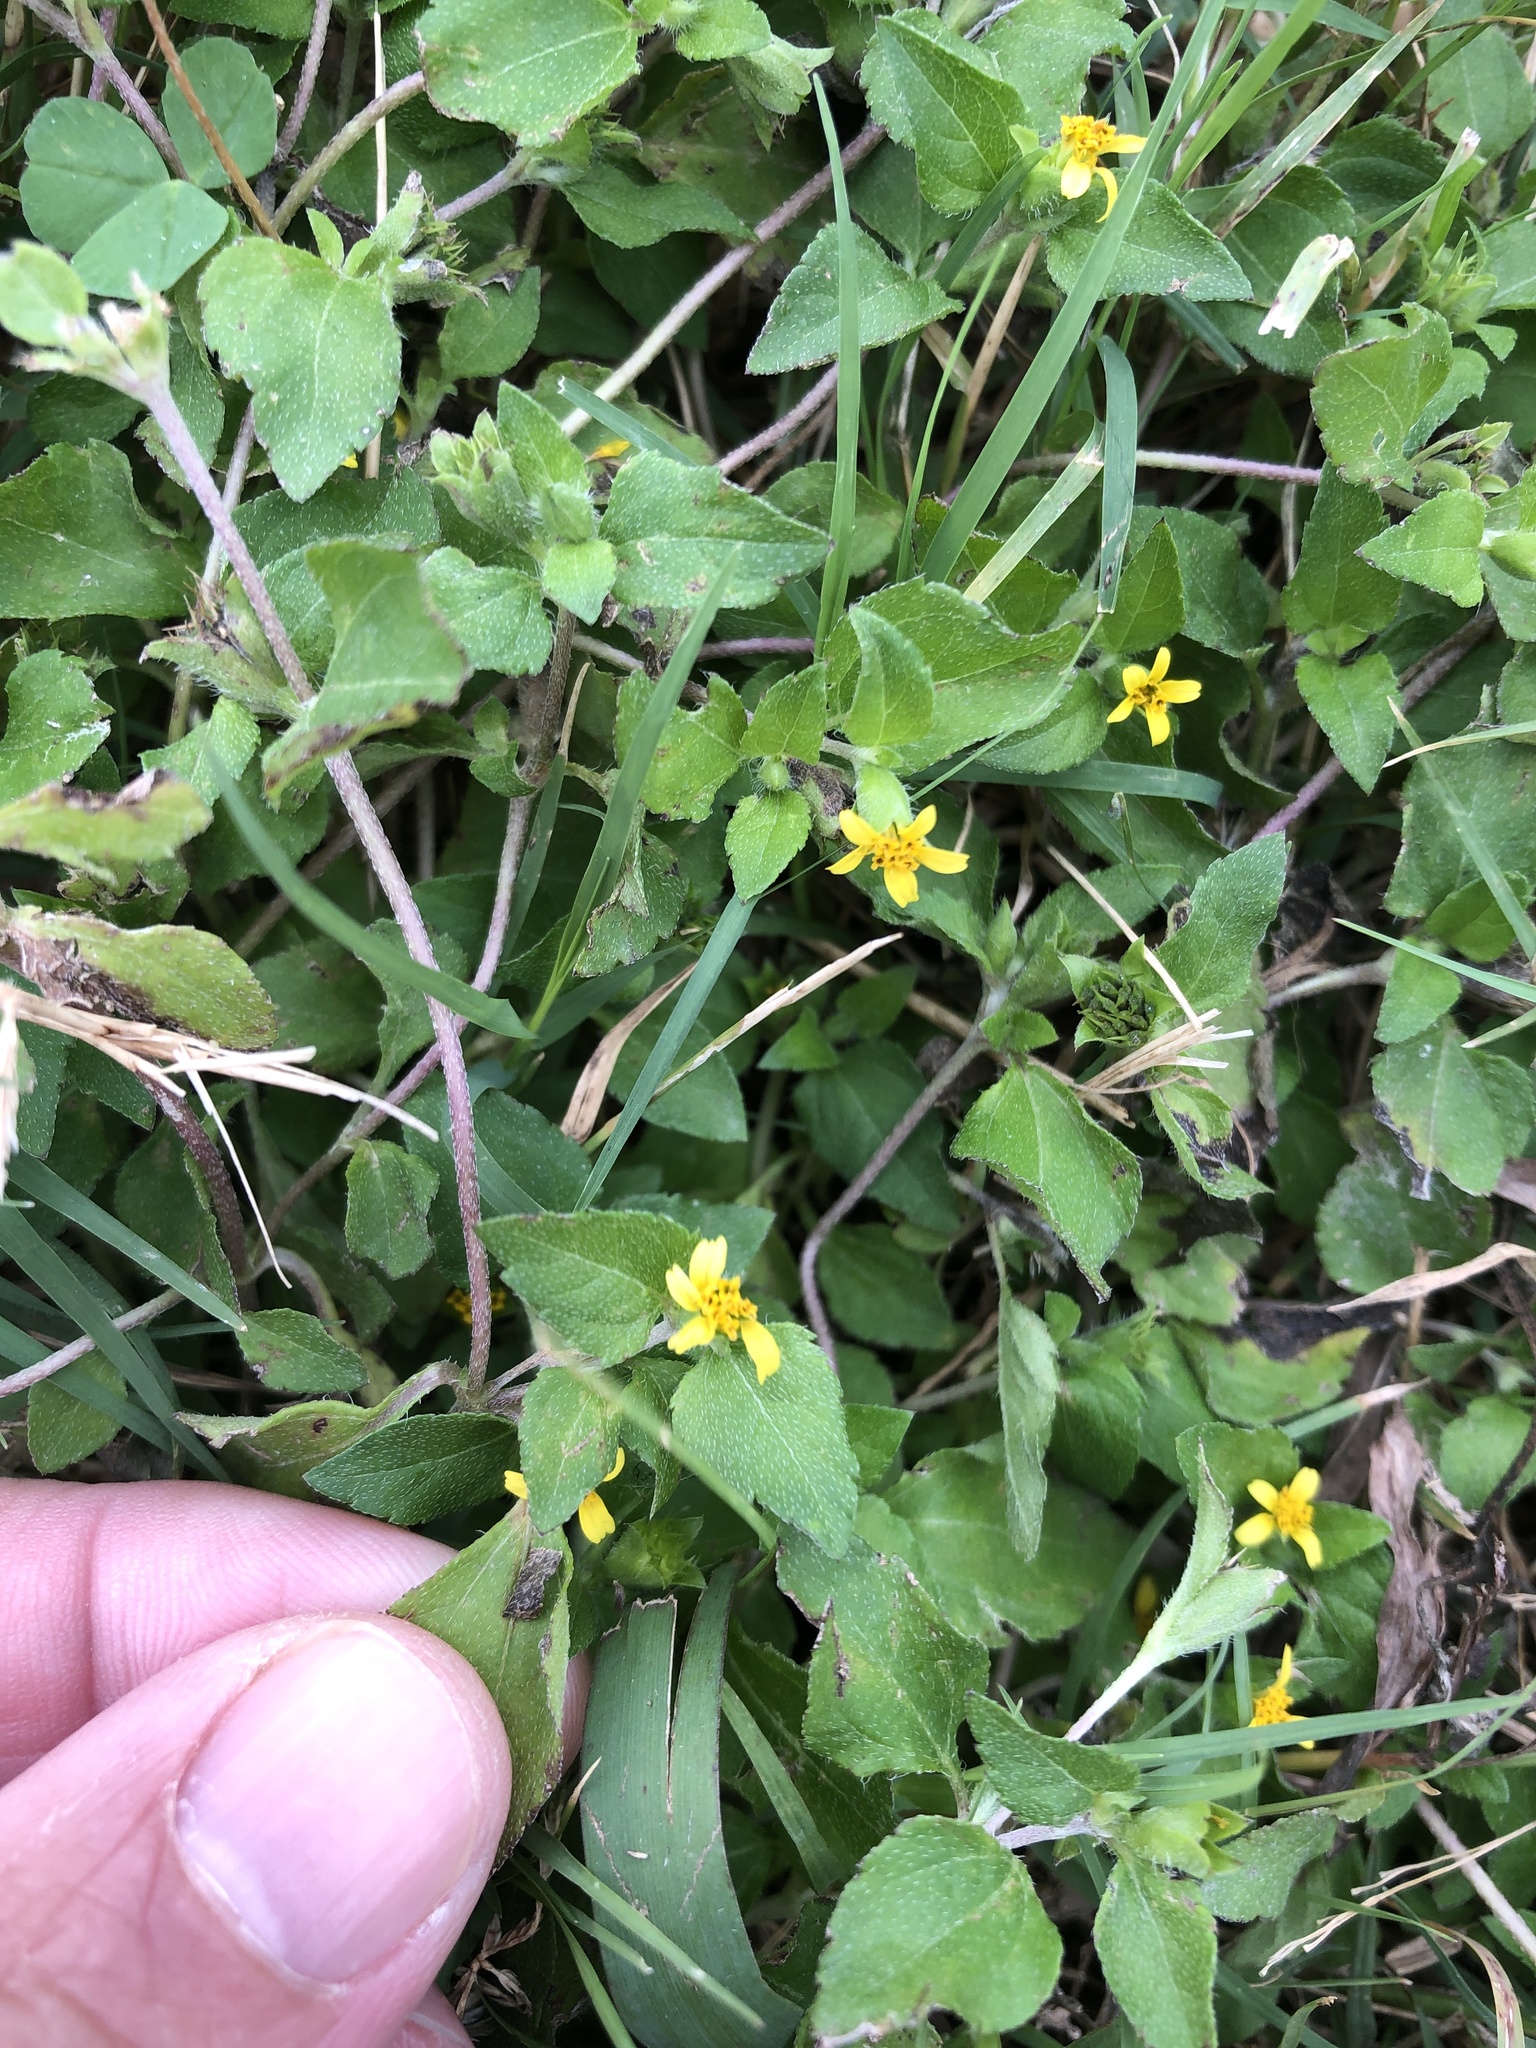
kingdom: Plantae
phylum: Tracheophyta
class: Magnoliopsida
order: Asterales
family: Asteraceae
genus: Calyptocarpus
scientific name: Calyptocarpus vialis
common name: Straggler daisy
